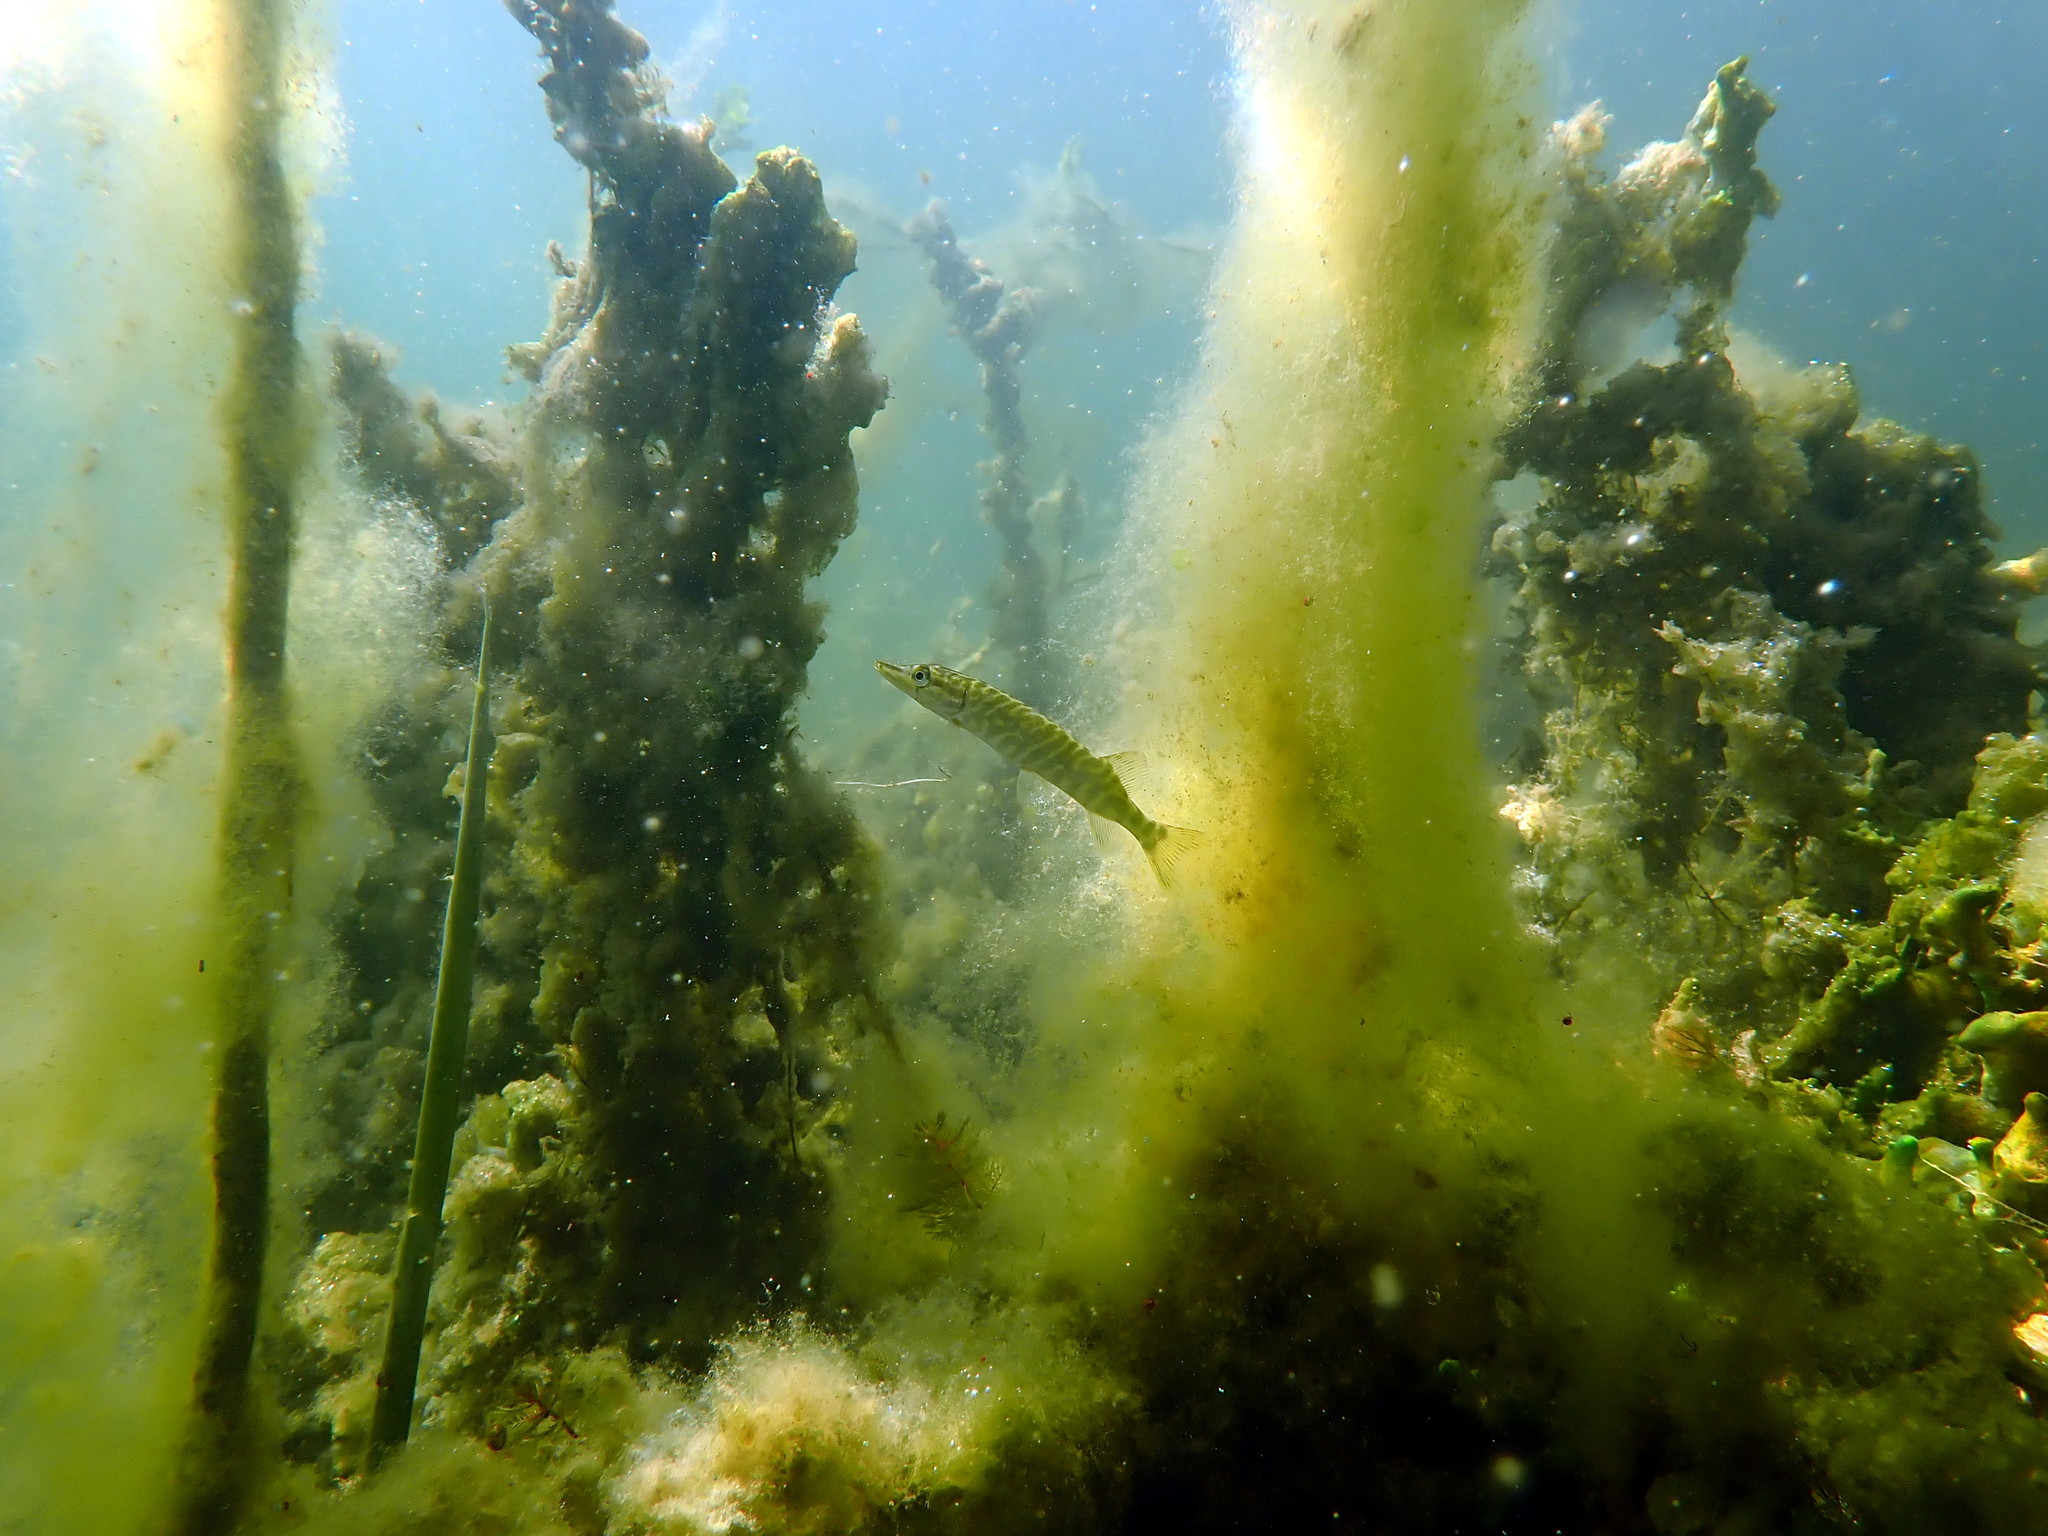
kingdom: Animalia
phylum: Chordata
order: Esociformes
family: Esocidae
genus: Esox
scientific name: Esox lucius
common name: Northern pike
